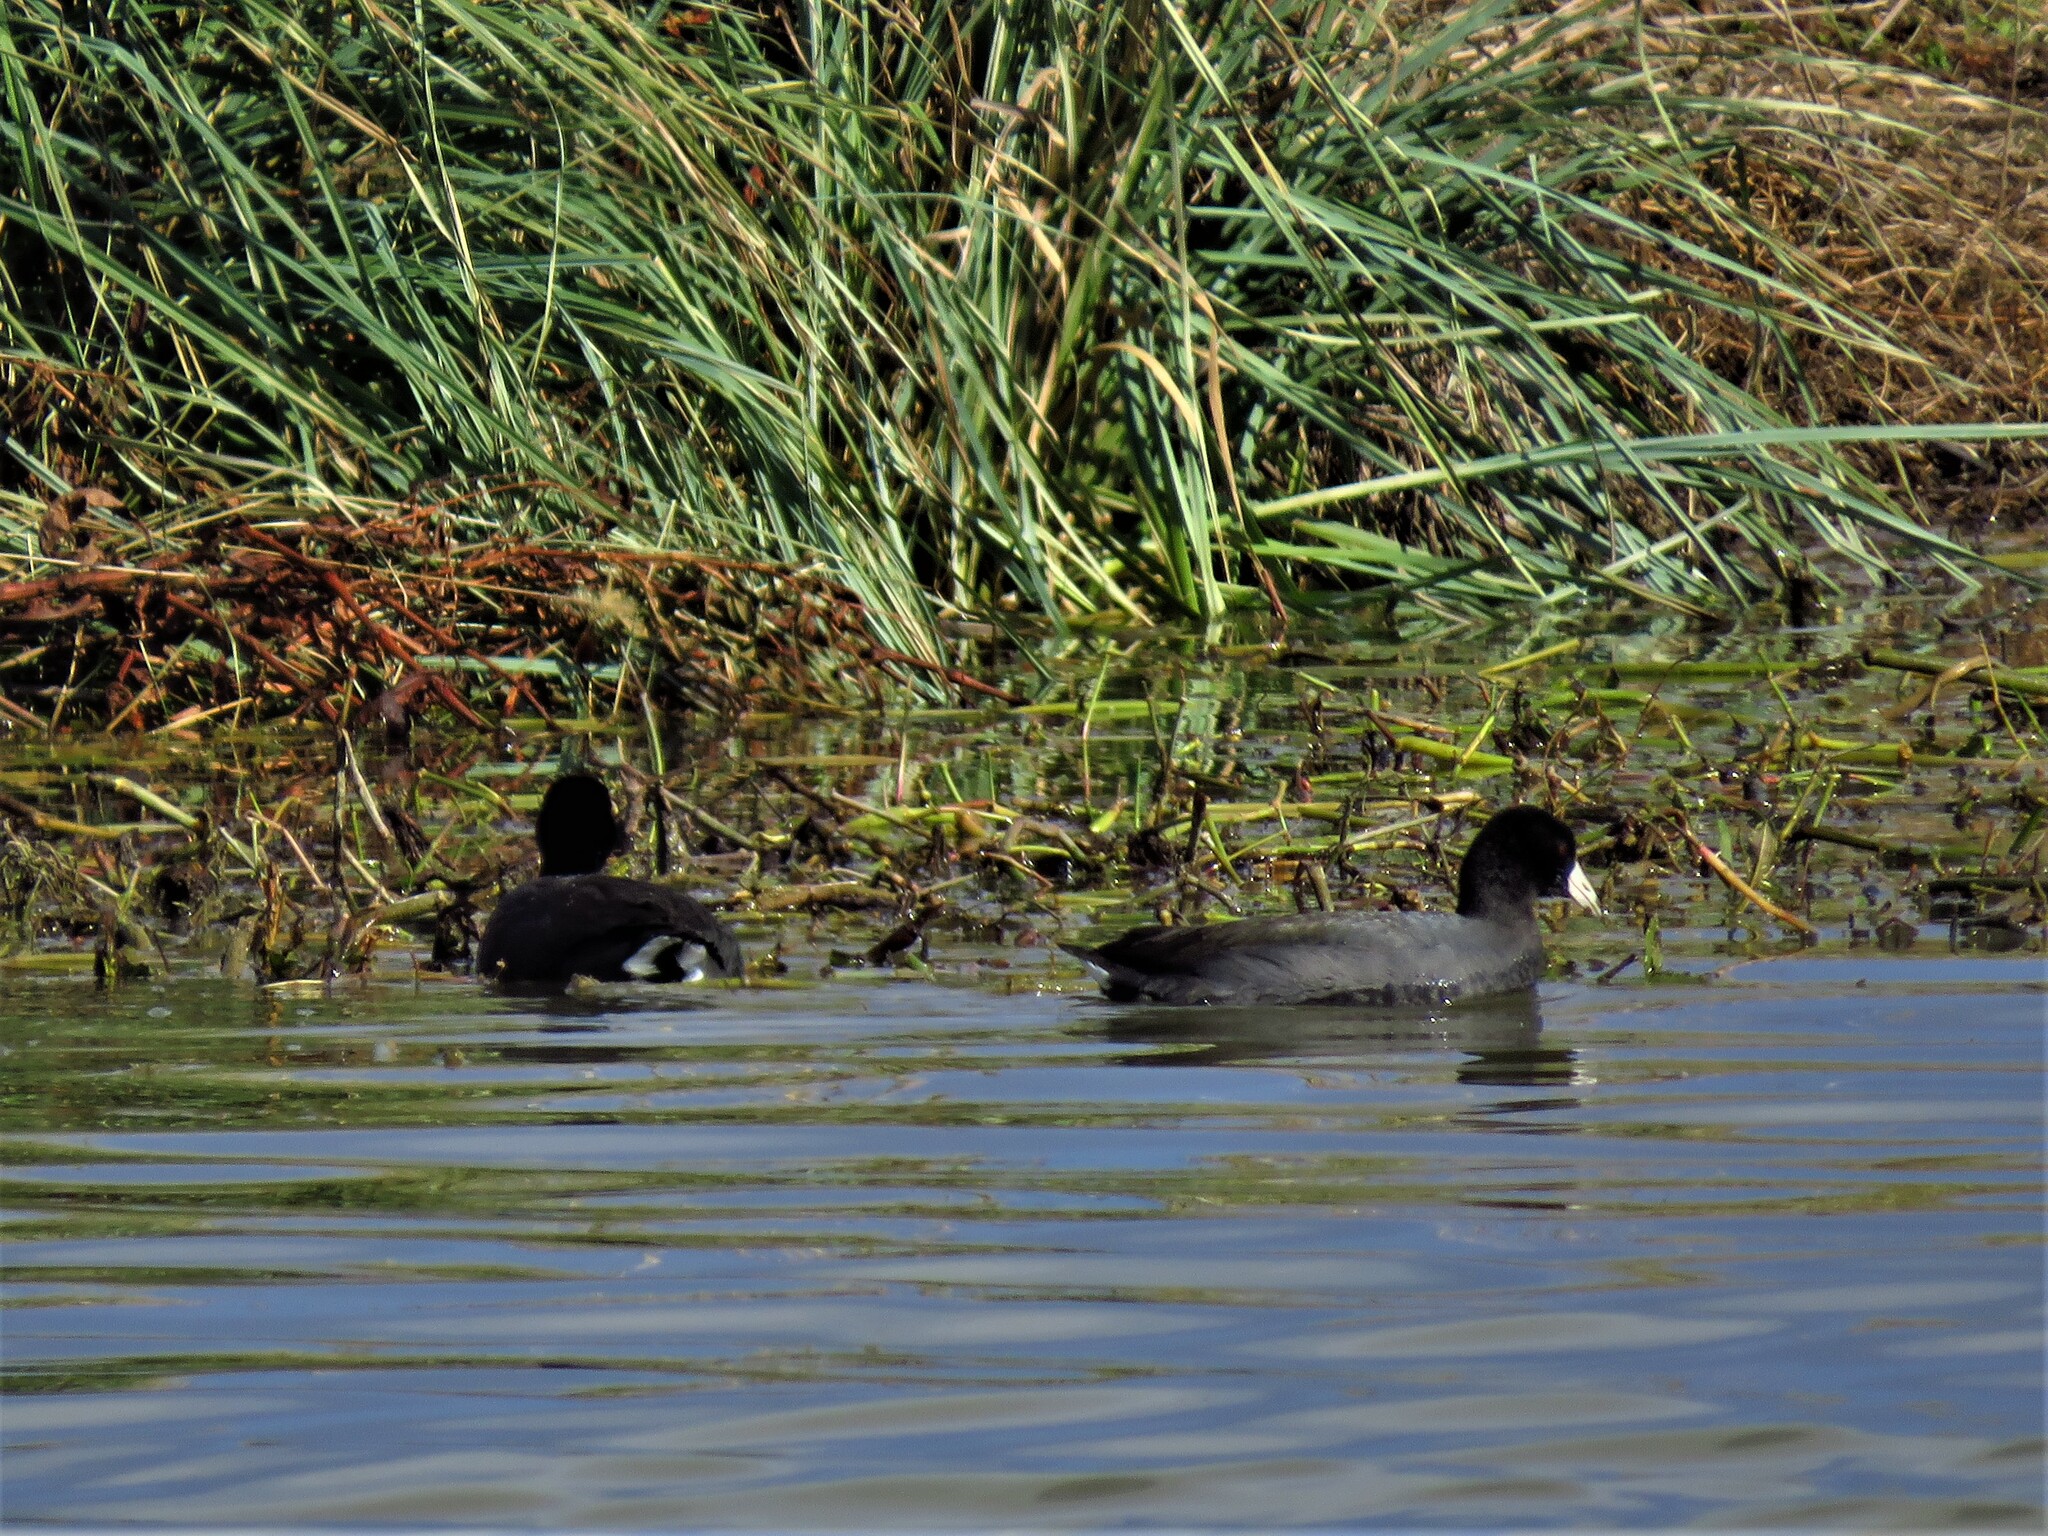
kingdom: Animalia
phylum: Chordata
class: Aves
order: Gruiformes
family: Rallidae
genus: Fulica
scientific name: Fulica americana
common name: American coot
